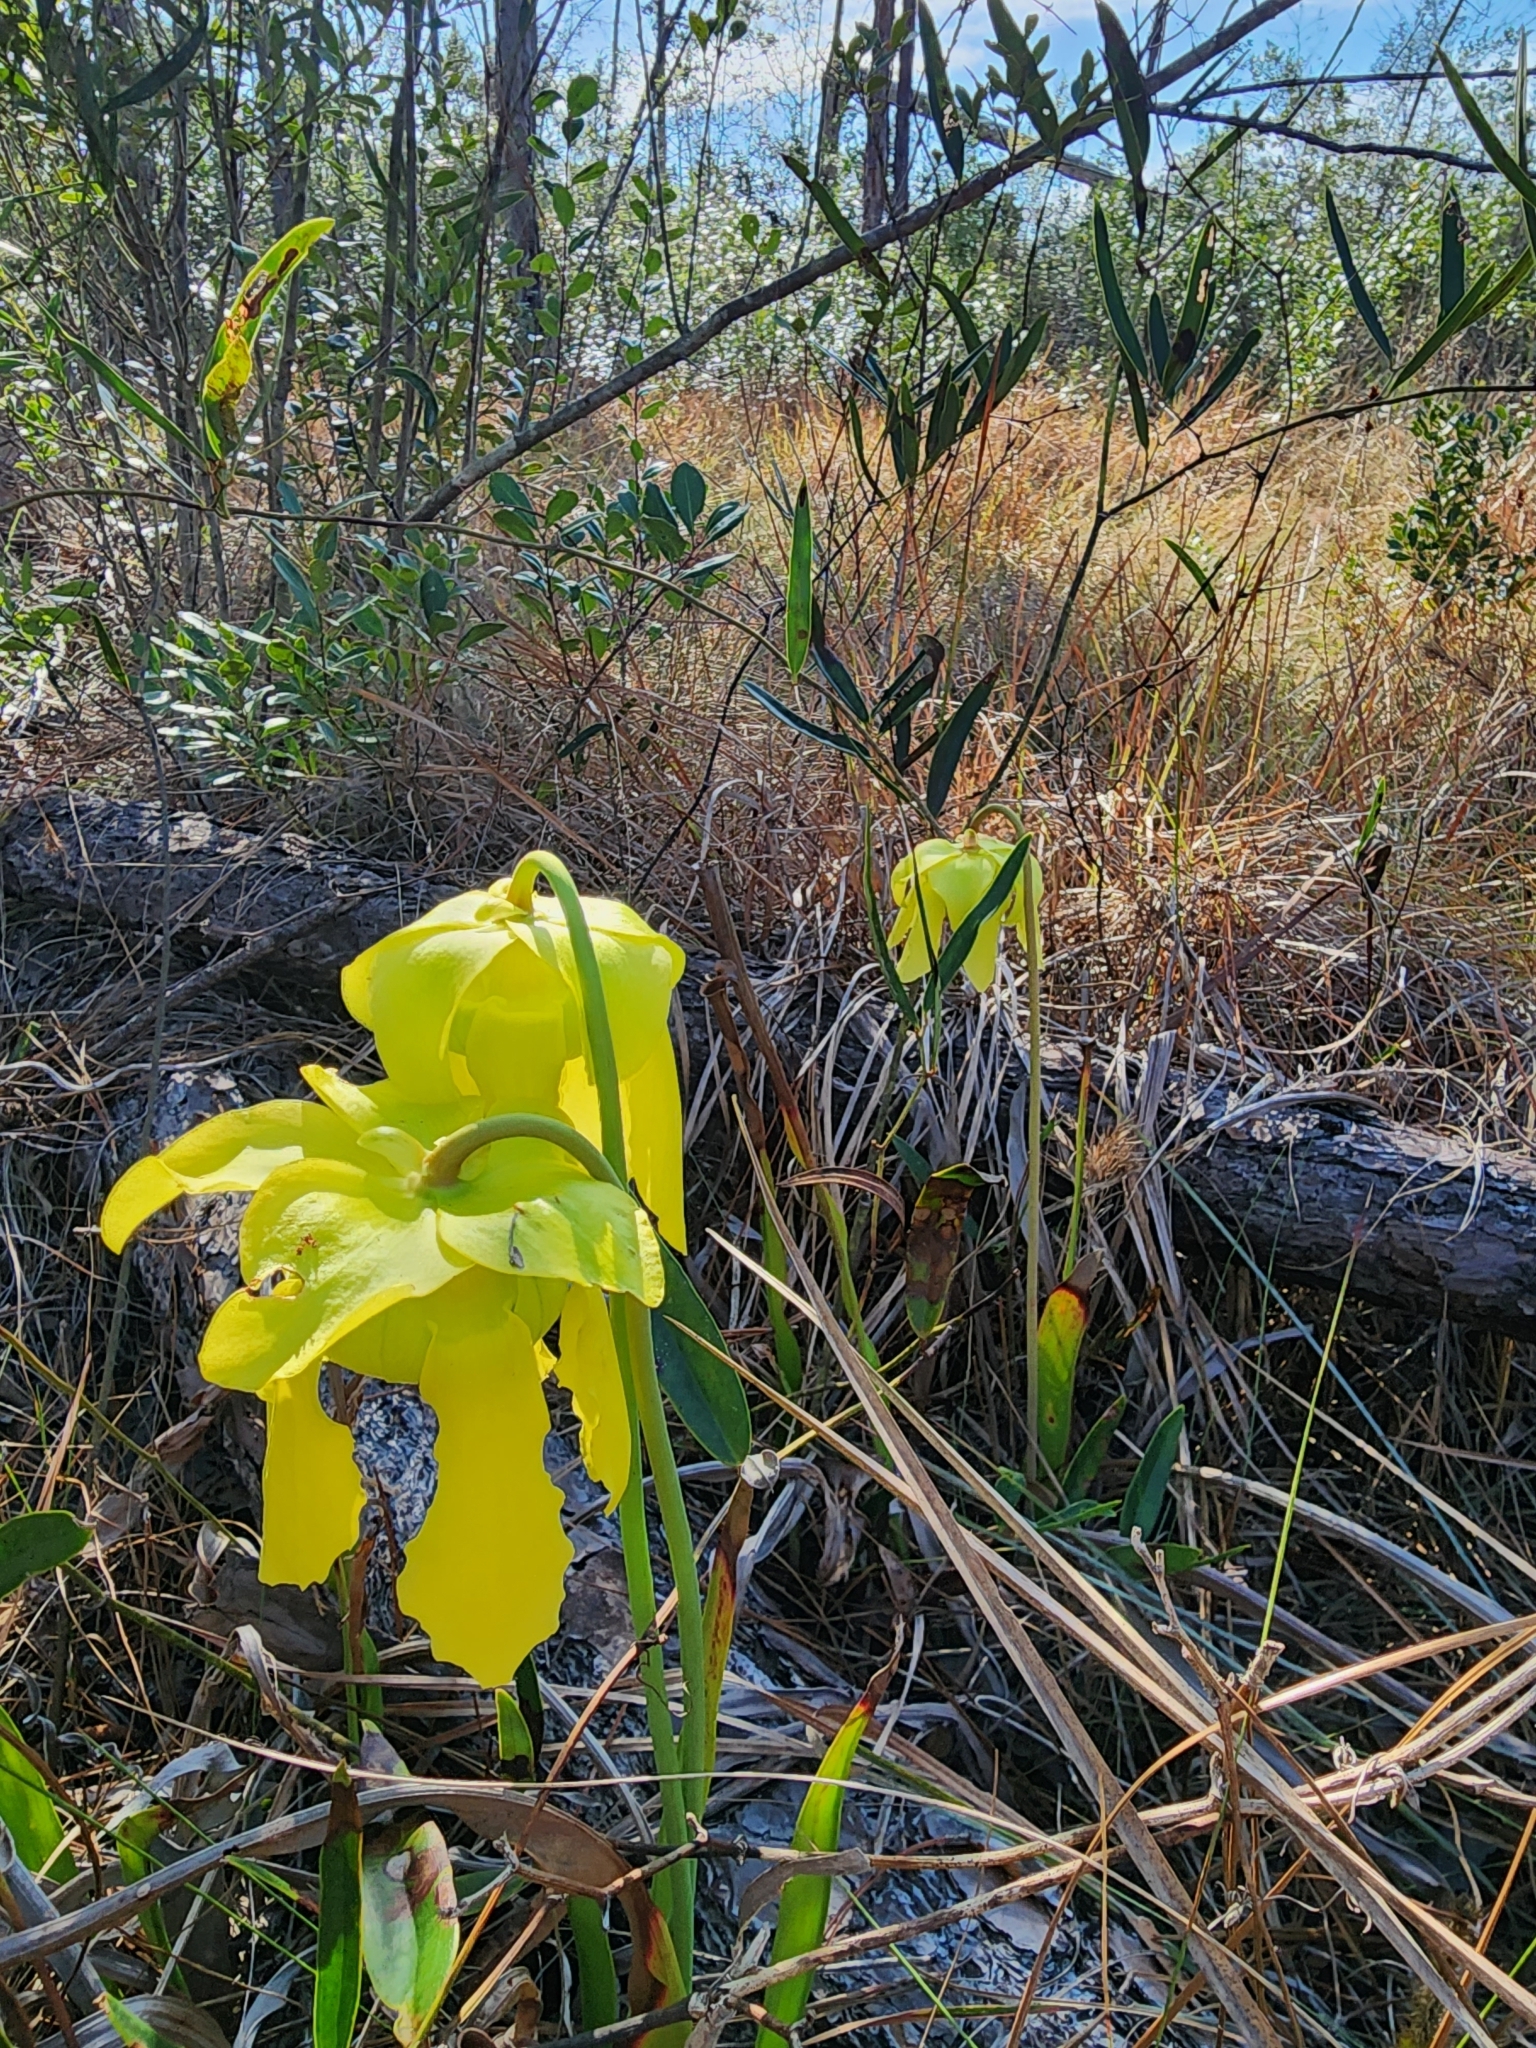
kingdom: Plantae
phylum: Tracheophyta
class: Magnoliopsida
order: Ericales
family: Sarraceniaceae
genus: Sarracenia
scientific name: Sarracenia flava
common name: Trumpets
